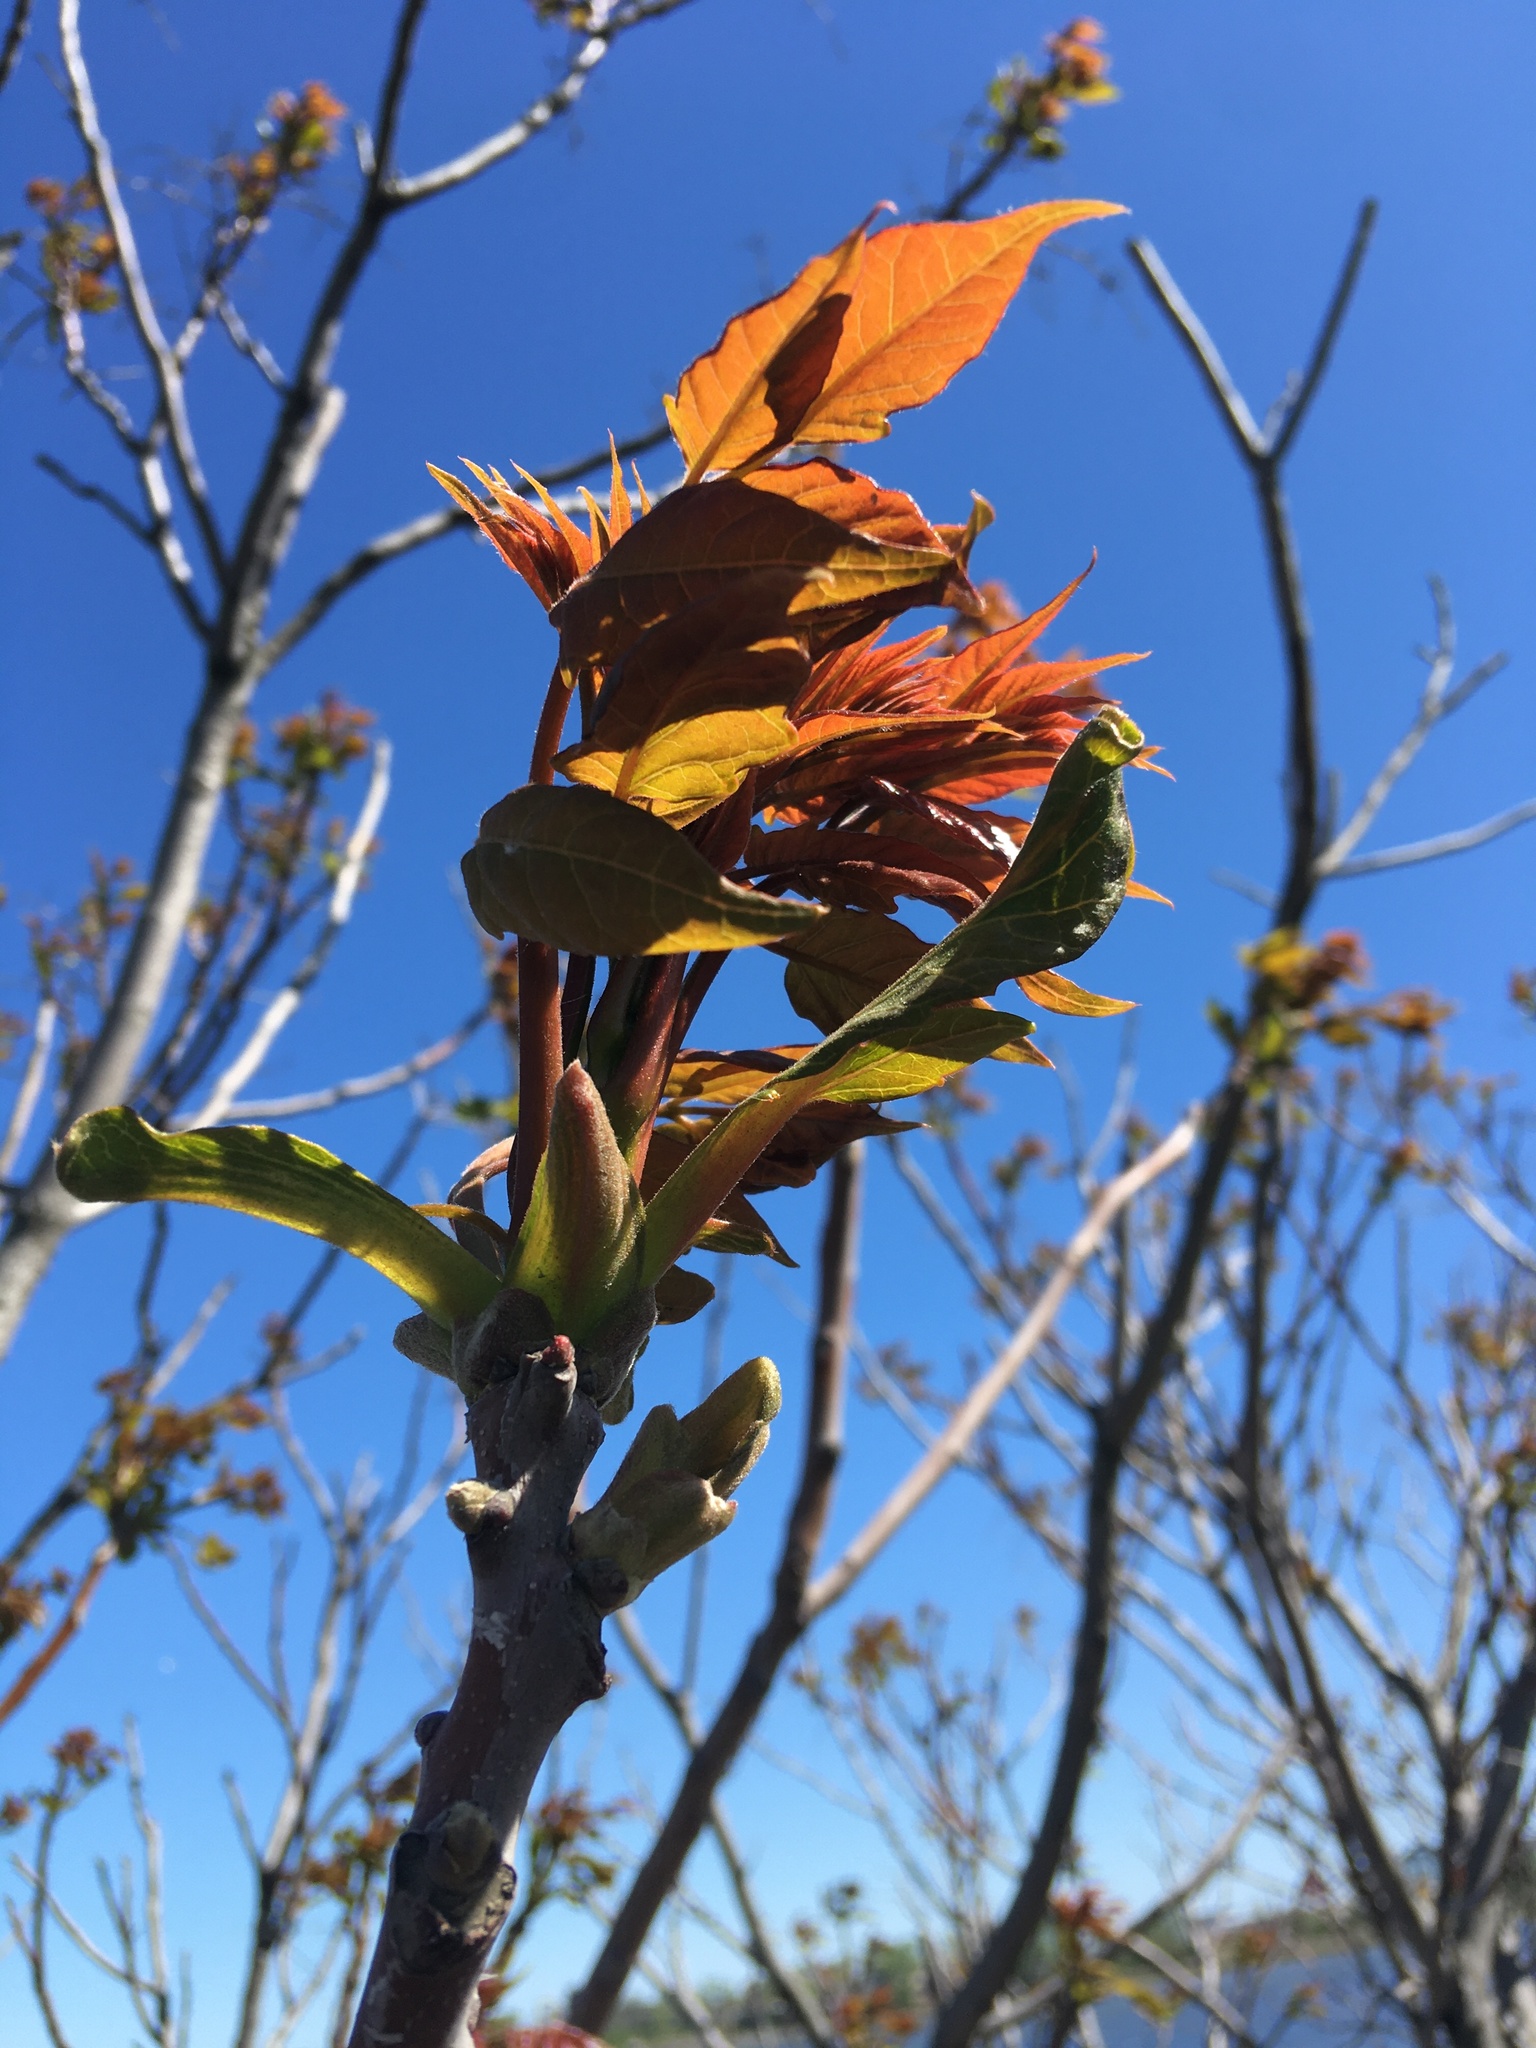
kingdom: Plantae
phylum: Tracheophyta
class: Magnoliopsida
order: Sapindales
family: Simaroubaceae
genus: Ailanthus
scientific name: Ailanthus altissima
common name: Tree-of-heaven
